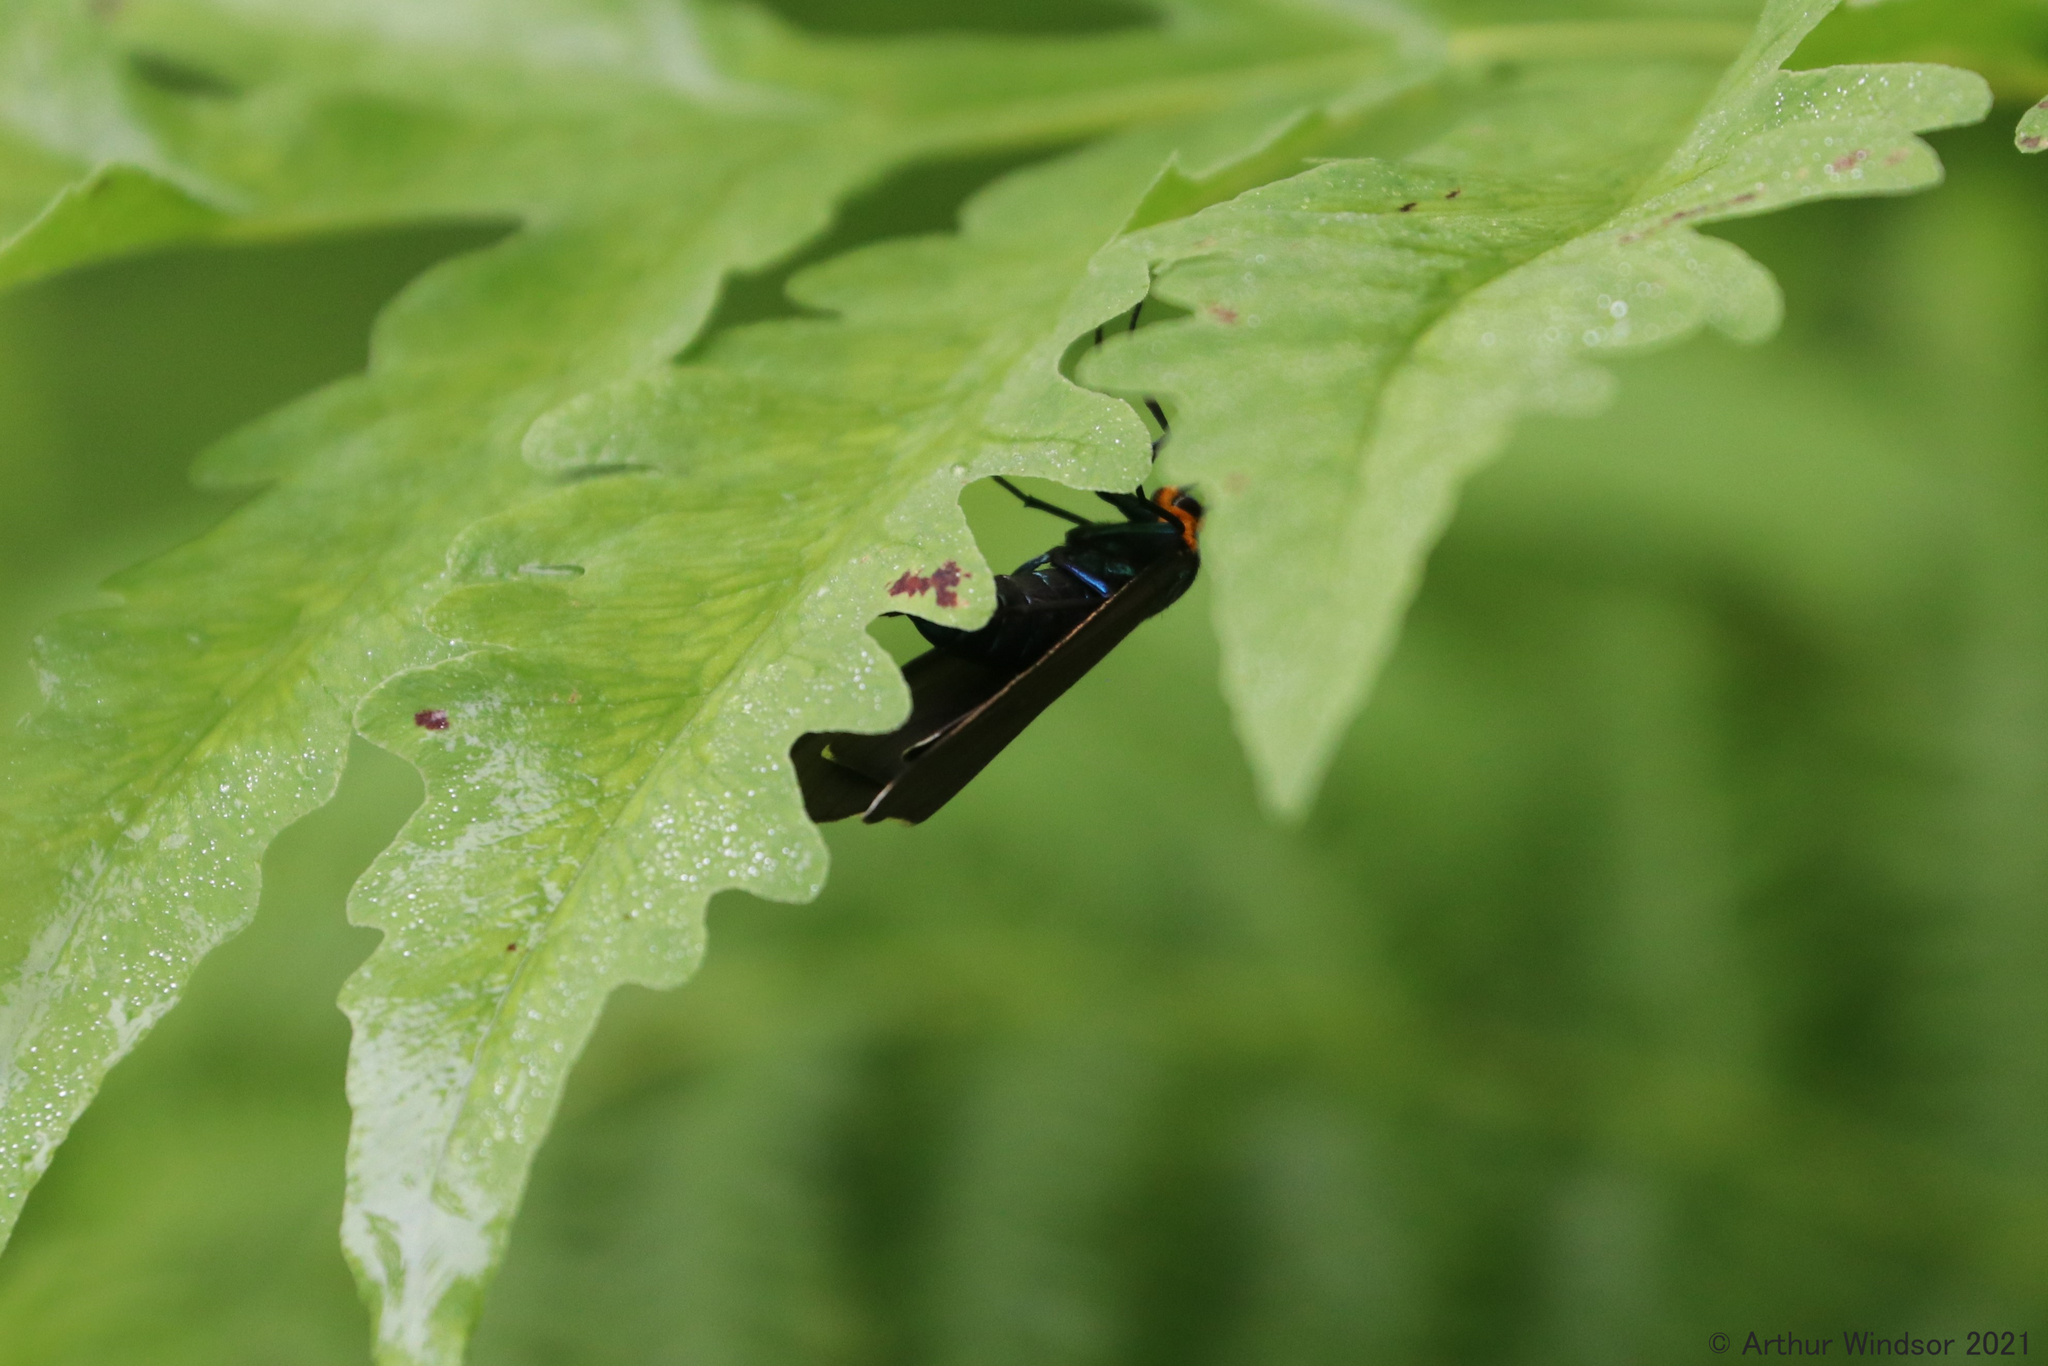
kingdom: Animalia
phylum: Arthropoda
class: Insecta
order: Lepidoptera
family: Erebidae
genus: Ctenucha
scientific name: Ctenucha virginica
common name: Virginia ctenucha moth
